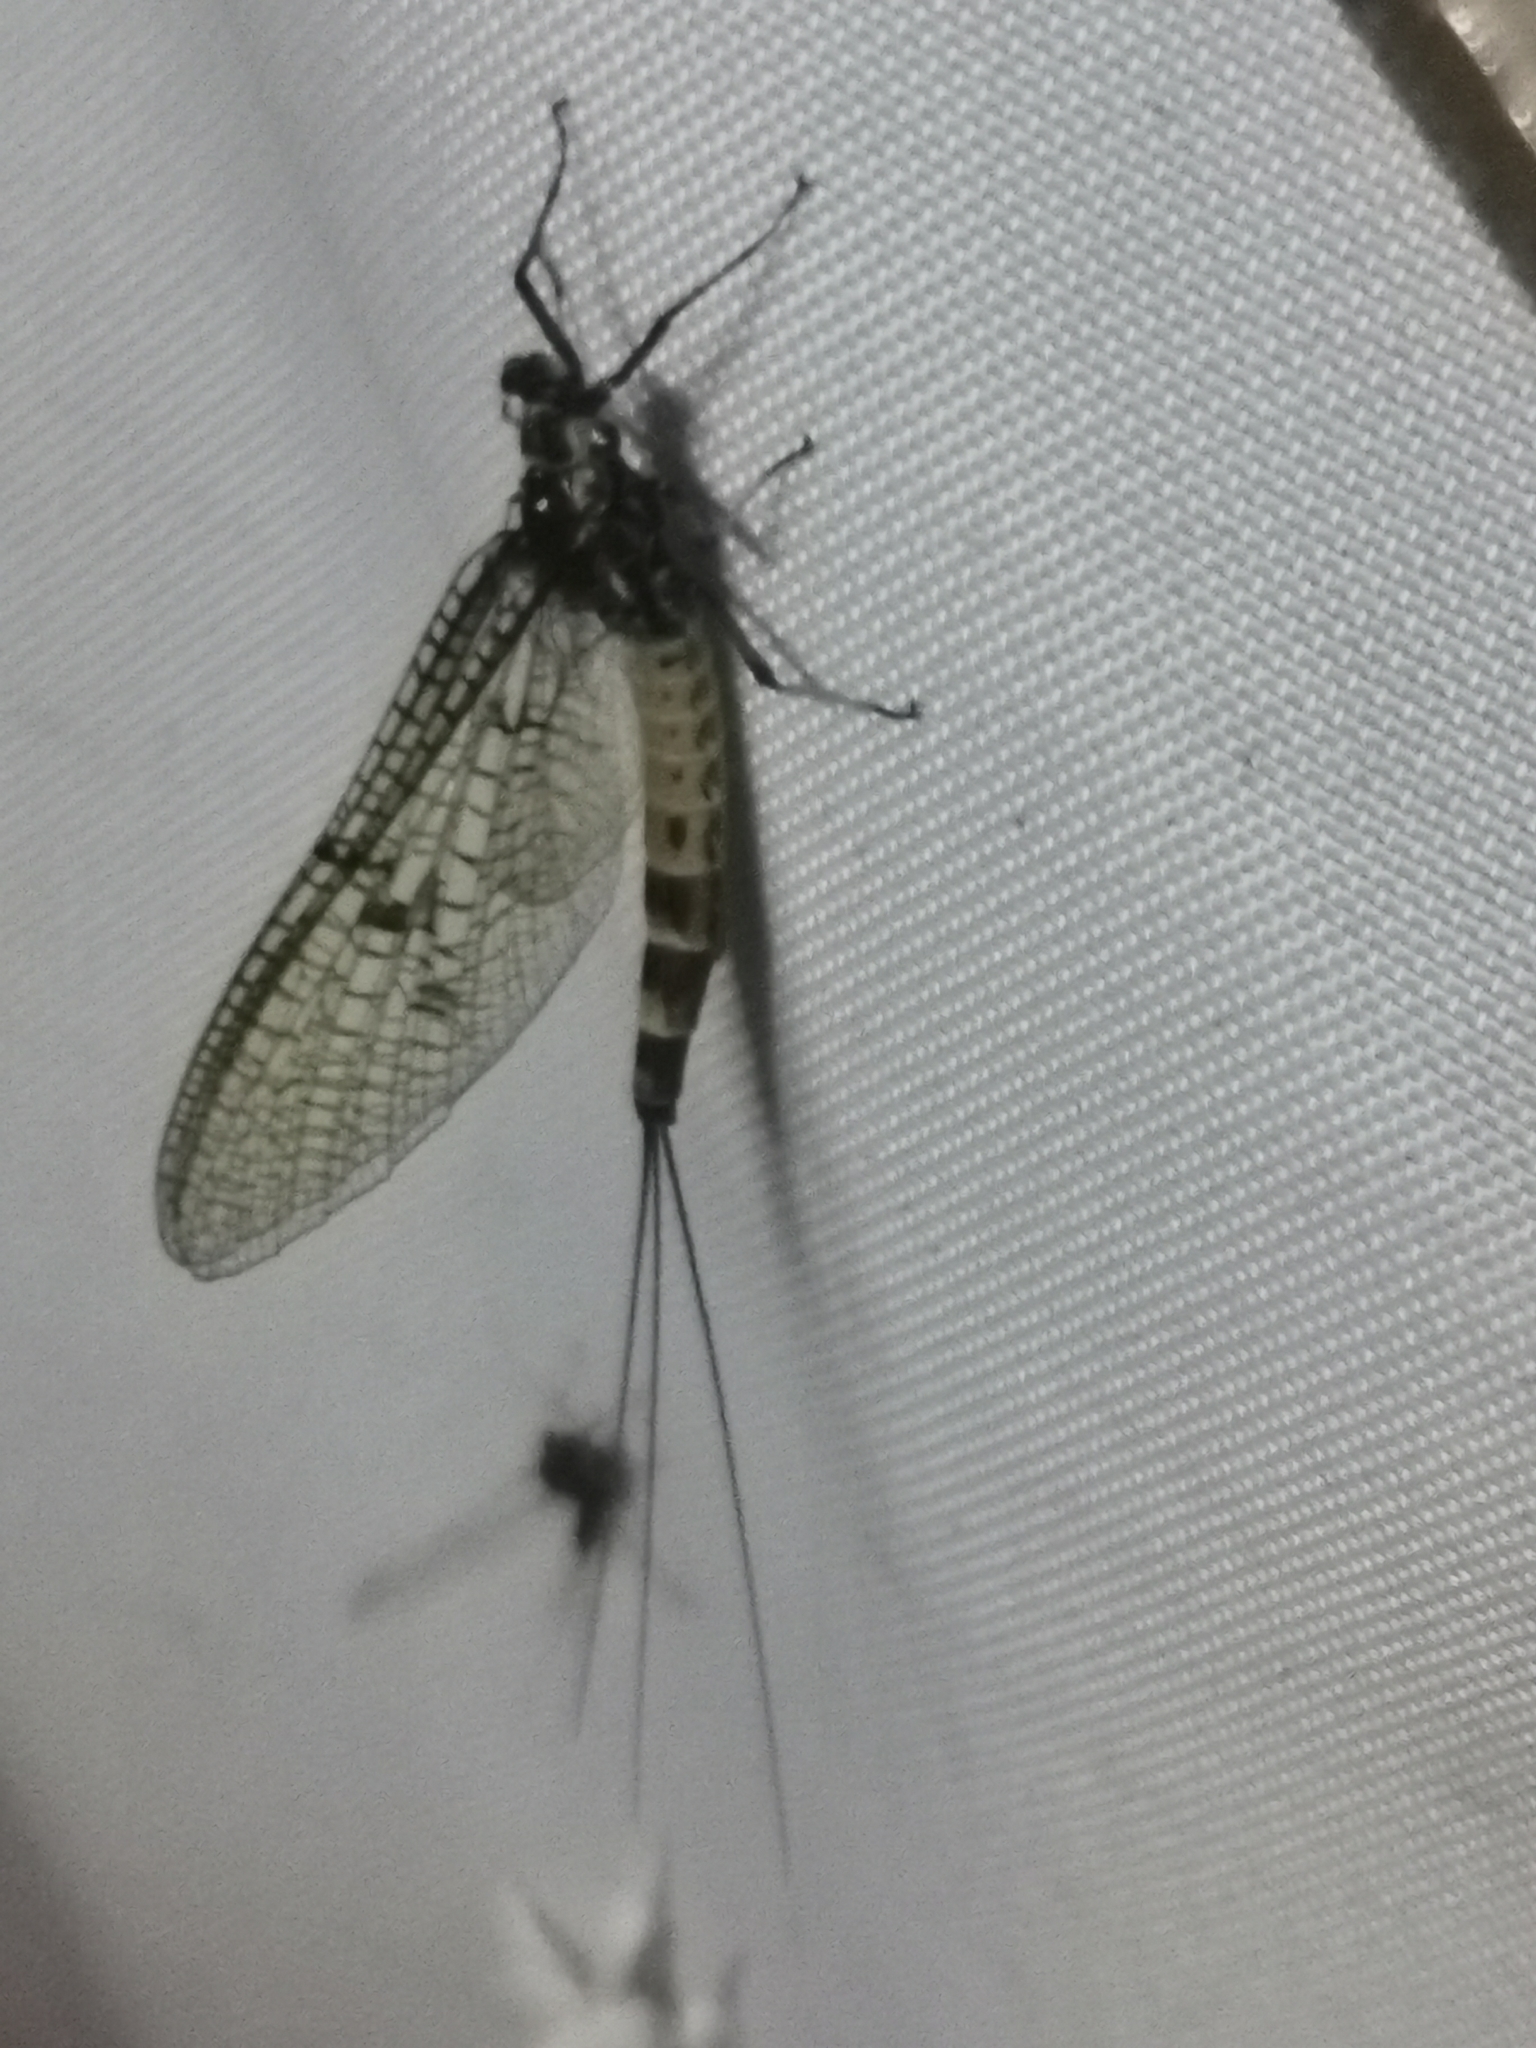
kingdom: Animalia
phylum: Arthropoda
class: Insecta
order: Ephemeroptera
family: Ephemeridae
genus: Ephemera
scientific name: Ephemera danica
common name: Green dun
